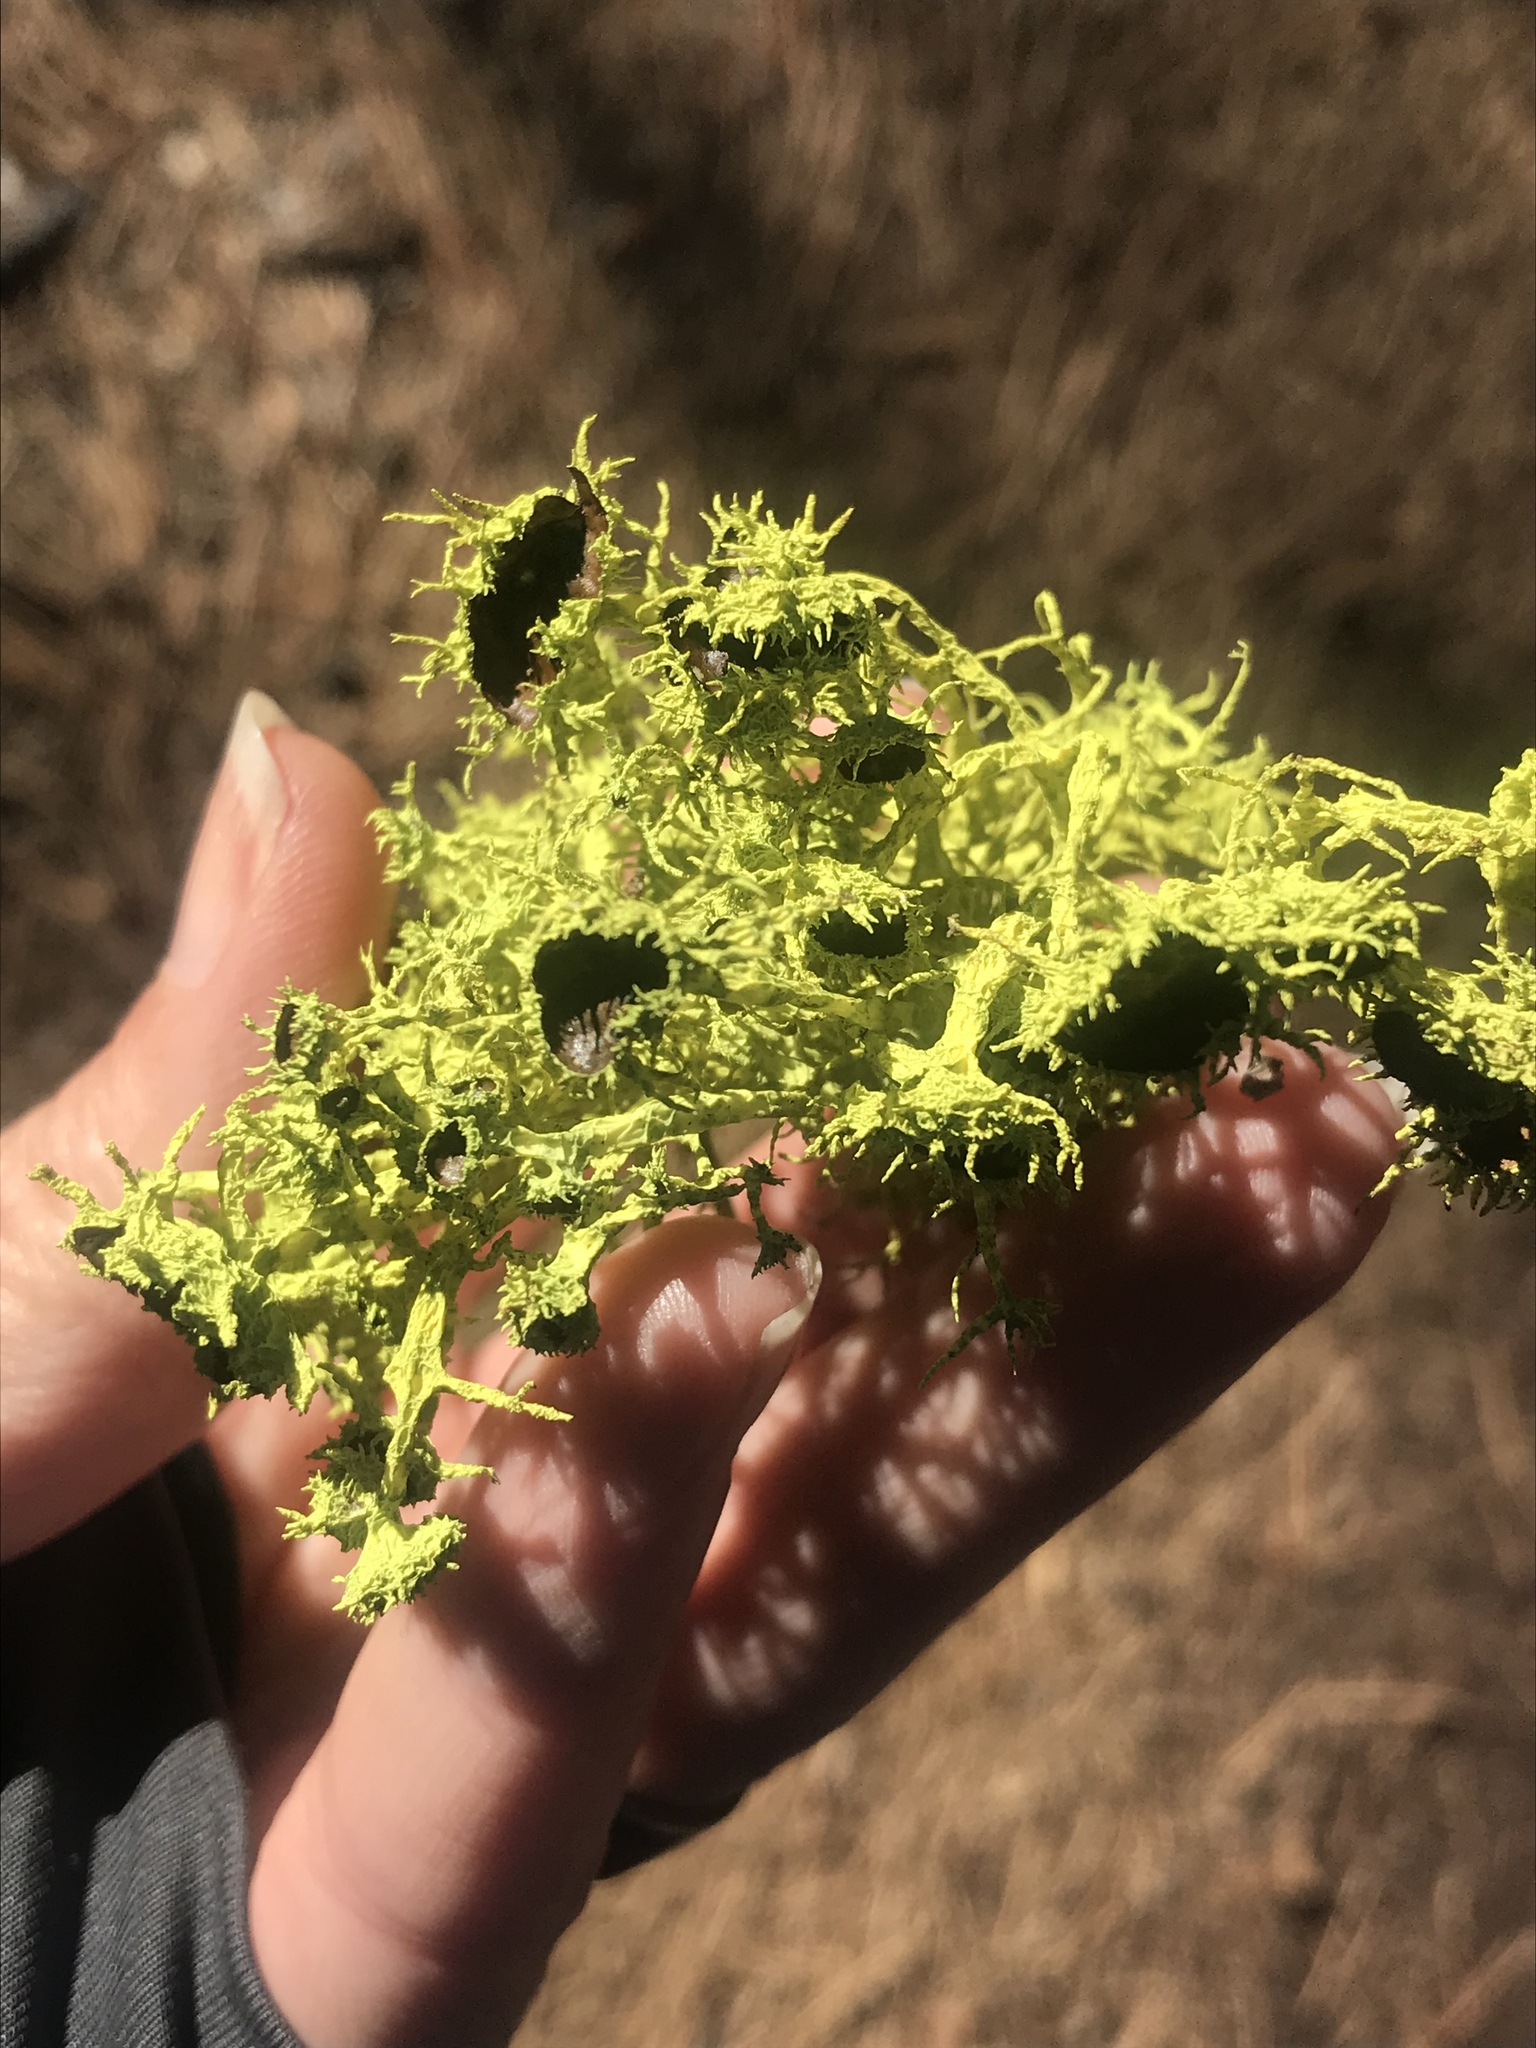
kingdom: Fungi
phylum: Ascomycota
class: Lecanoromycetes
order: Lecanorales
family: Parmeliaceae
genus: Letharia
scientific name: Letharia columbiana
